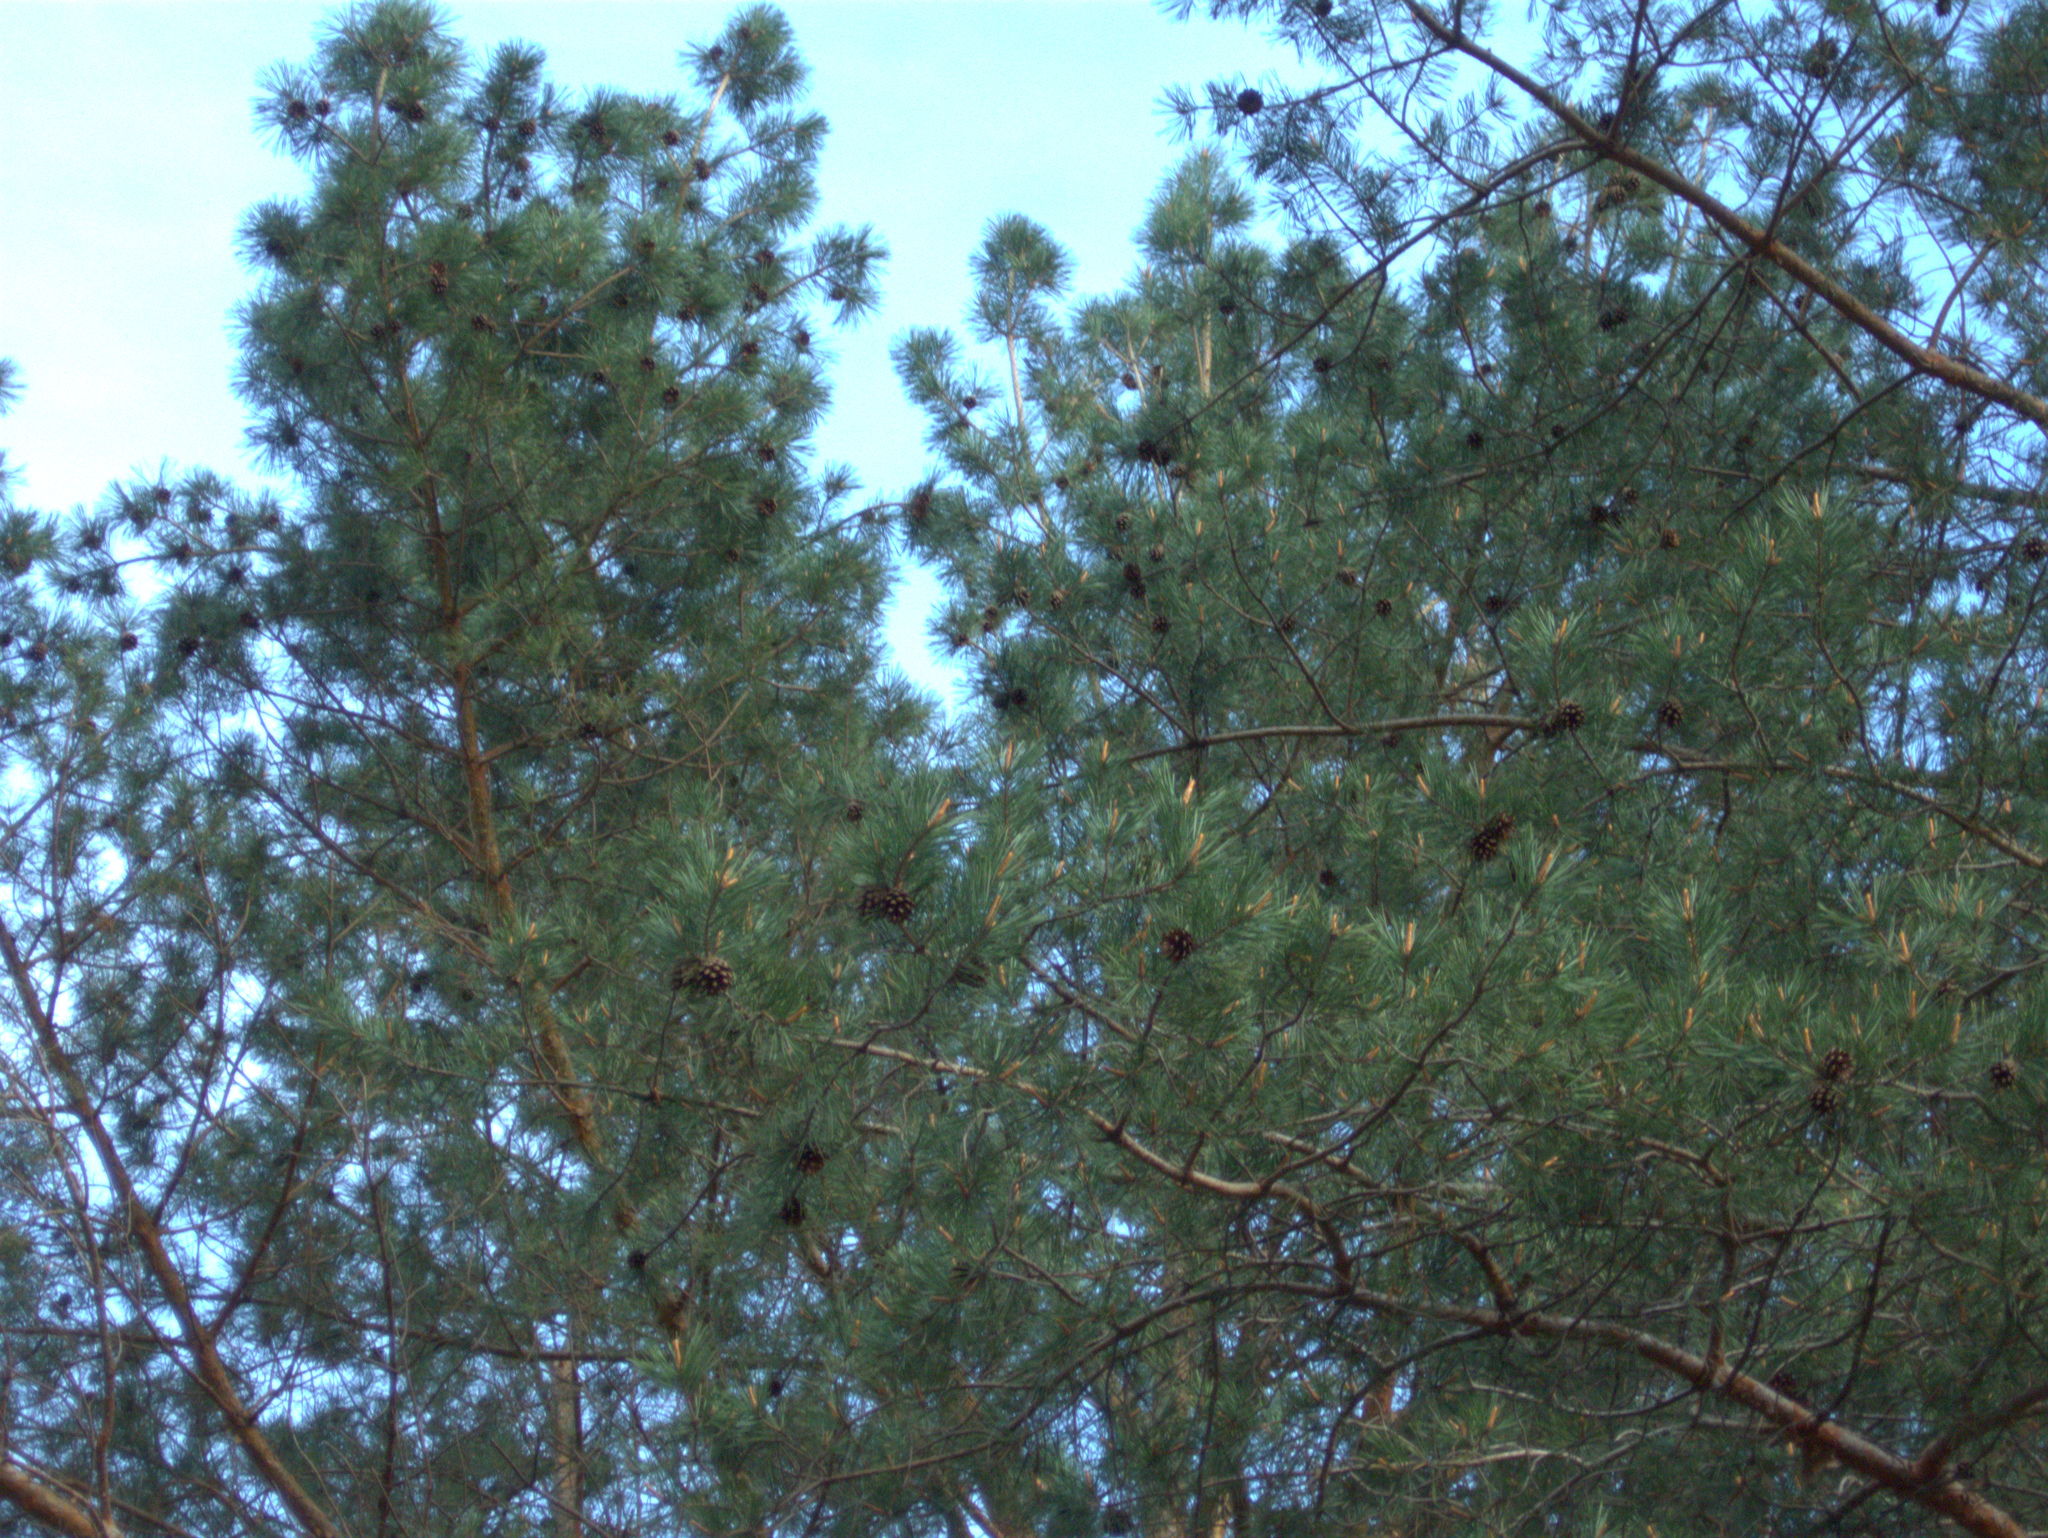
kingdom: Plantae
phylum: Tracheophyta
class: Pinopsida
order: Pinales
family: Pinaceae
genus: Pinus
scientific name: Pinus sylvestris
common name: Scots pine
